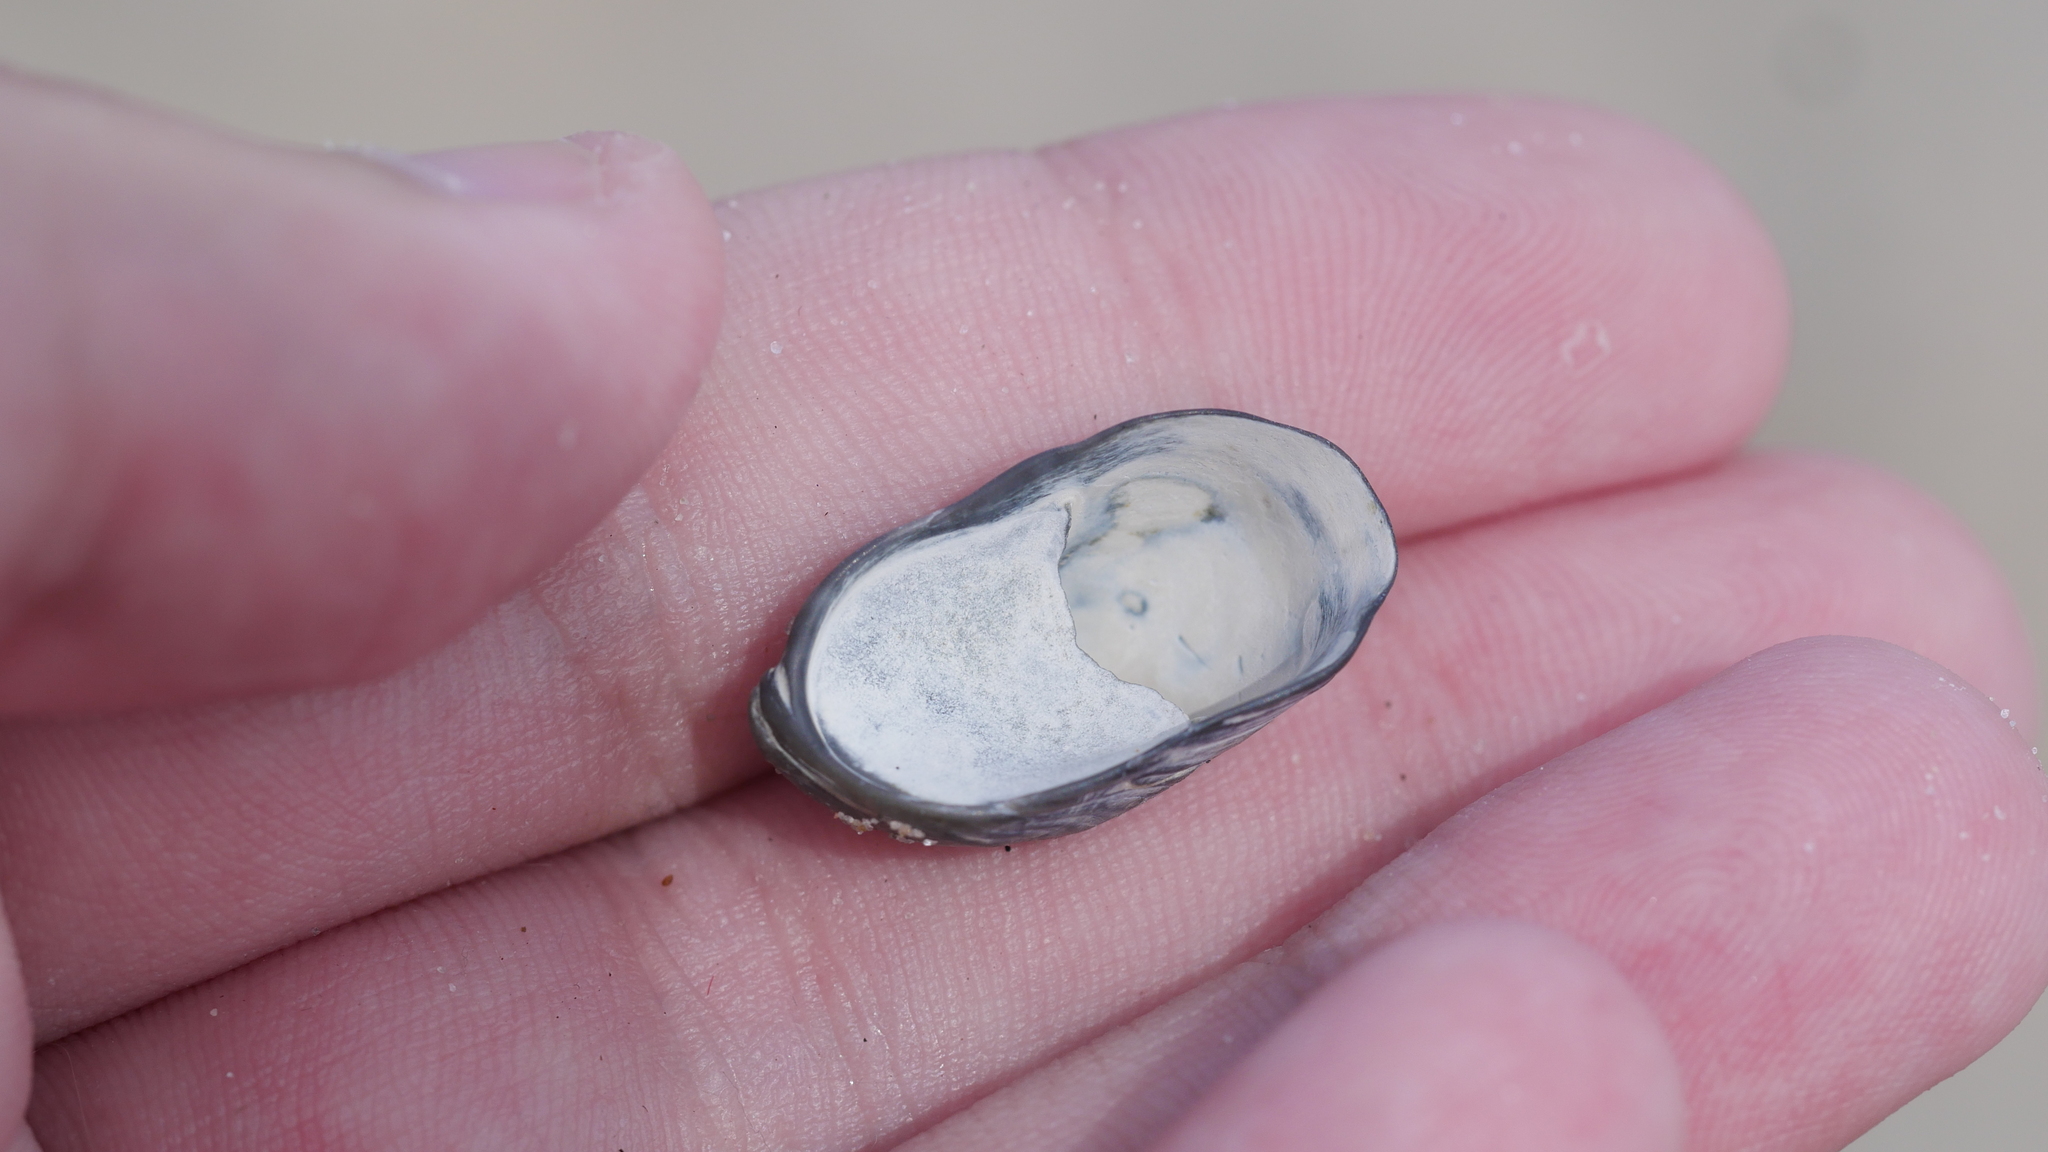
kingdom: Animalia
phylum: Mollusca
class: Gastropoda
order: Littorinimorpha
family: Calyptraeidae
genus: Crepidula
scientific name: Crepidula fornicata
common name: Slipper limpet
